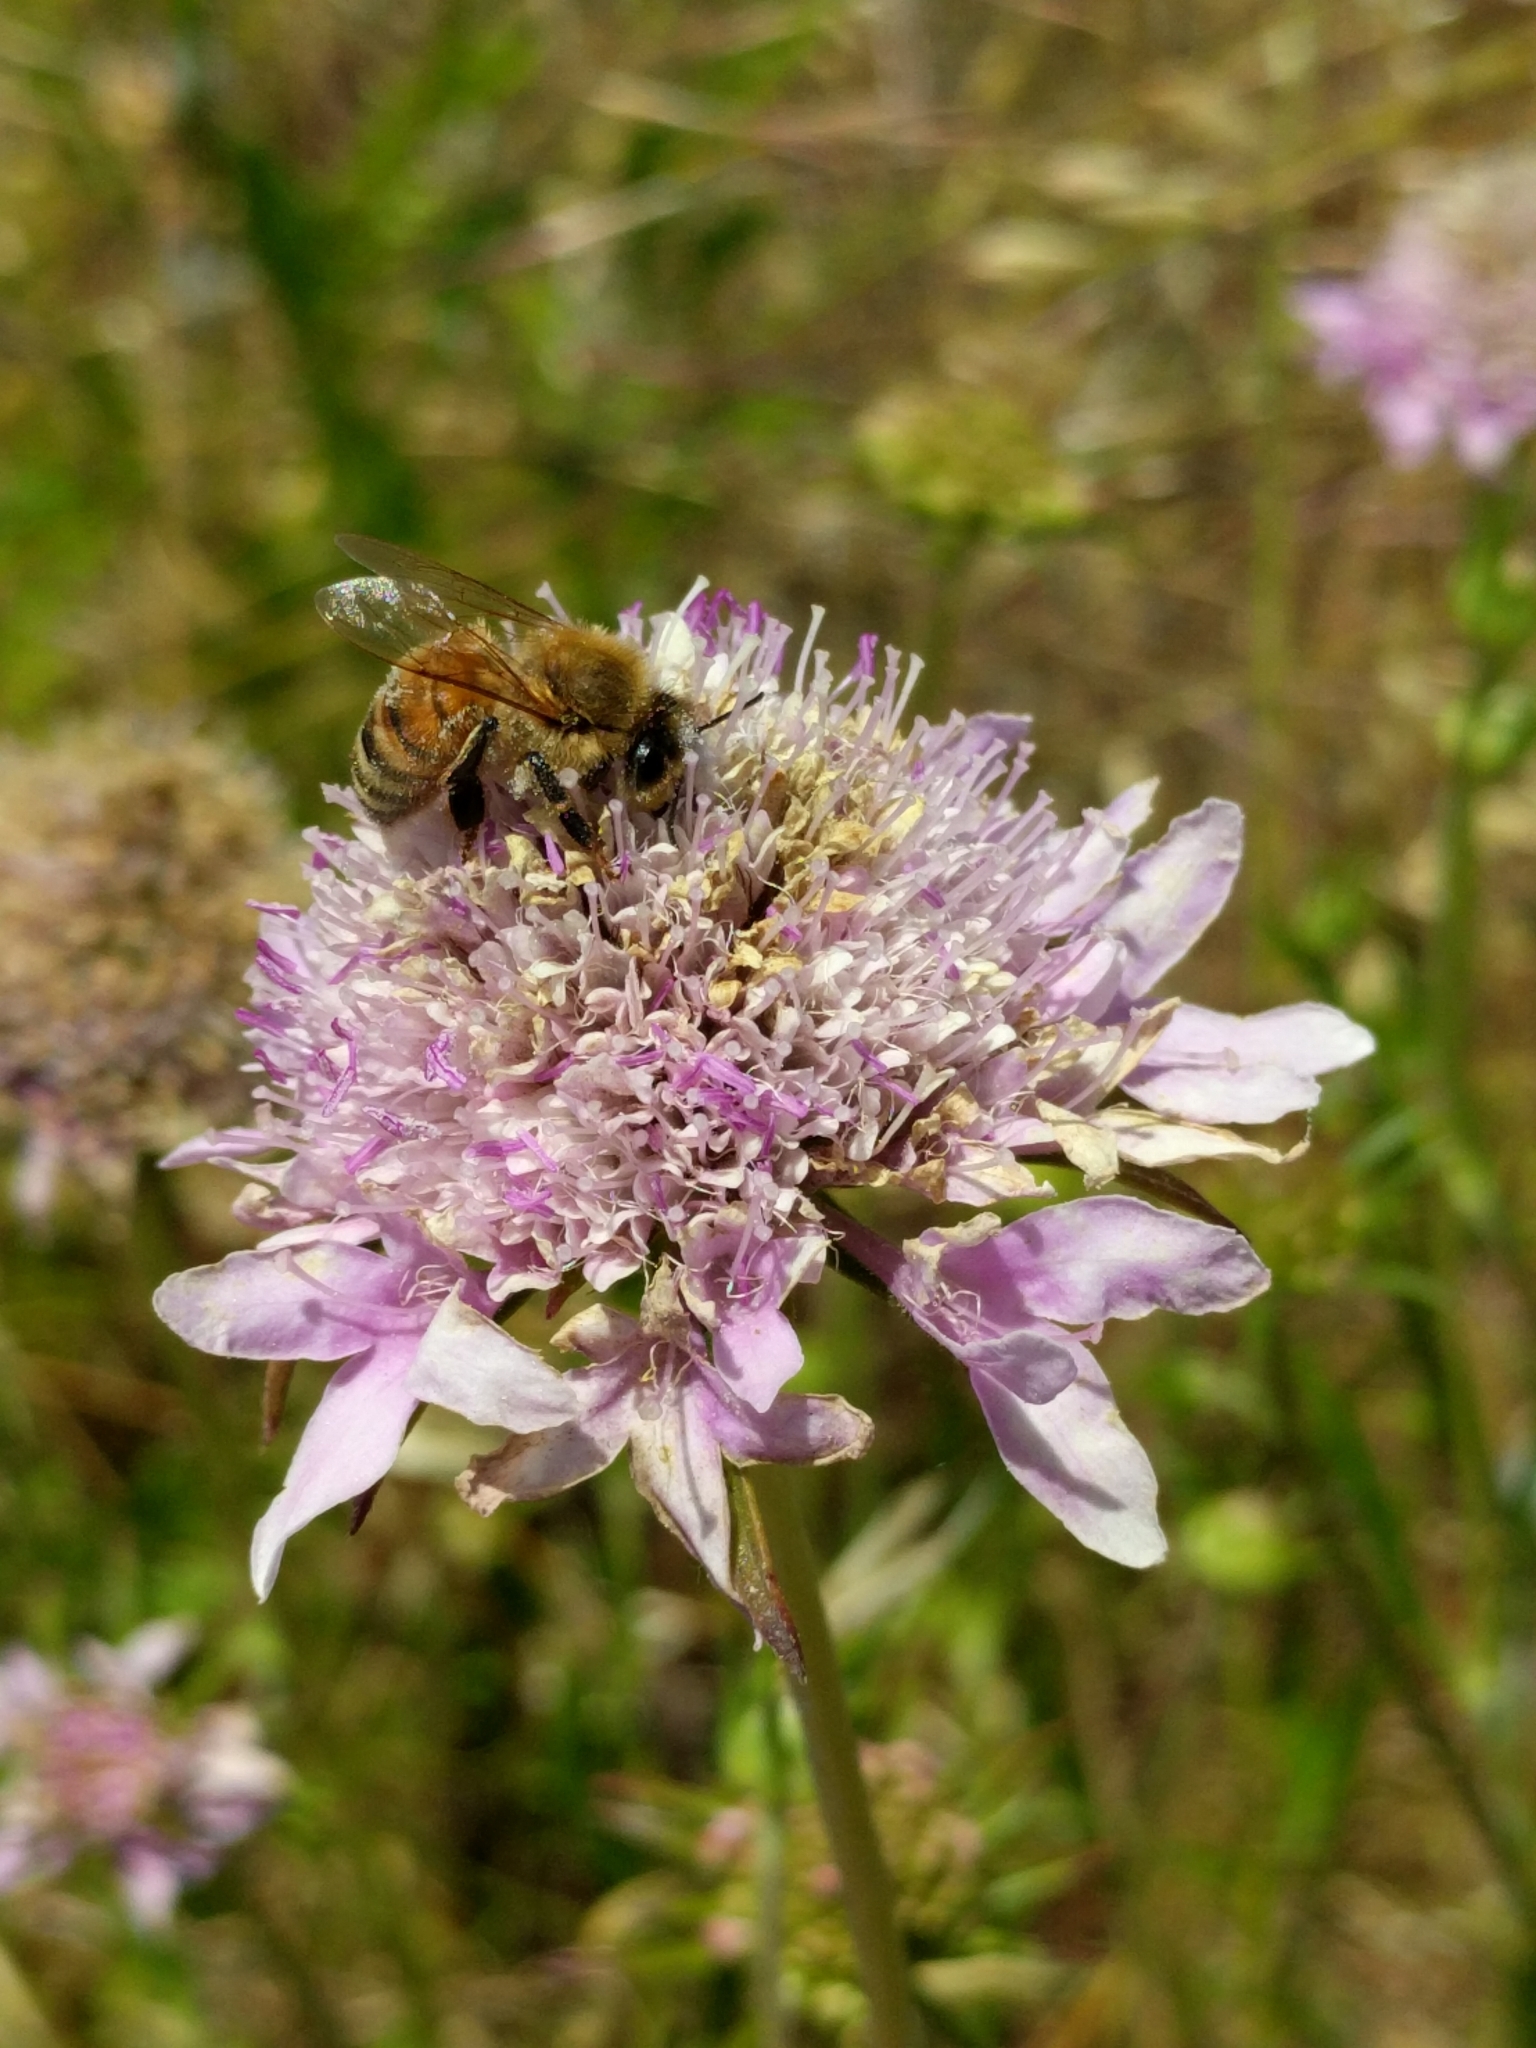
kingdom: Plantae
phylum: Tracheophyta
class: Magnoliopsida
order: Dipsacales
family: Caprifoliaceae
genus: Sixalix
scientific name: Sixalix atropurpurea
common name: Sweet scabious
